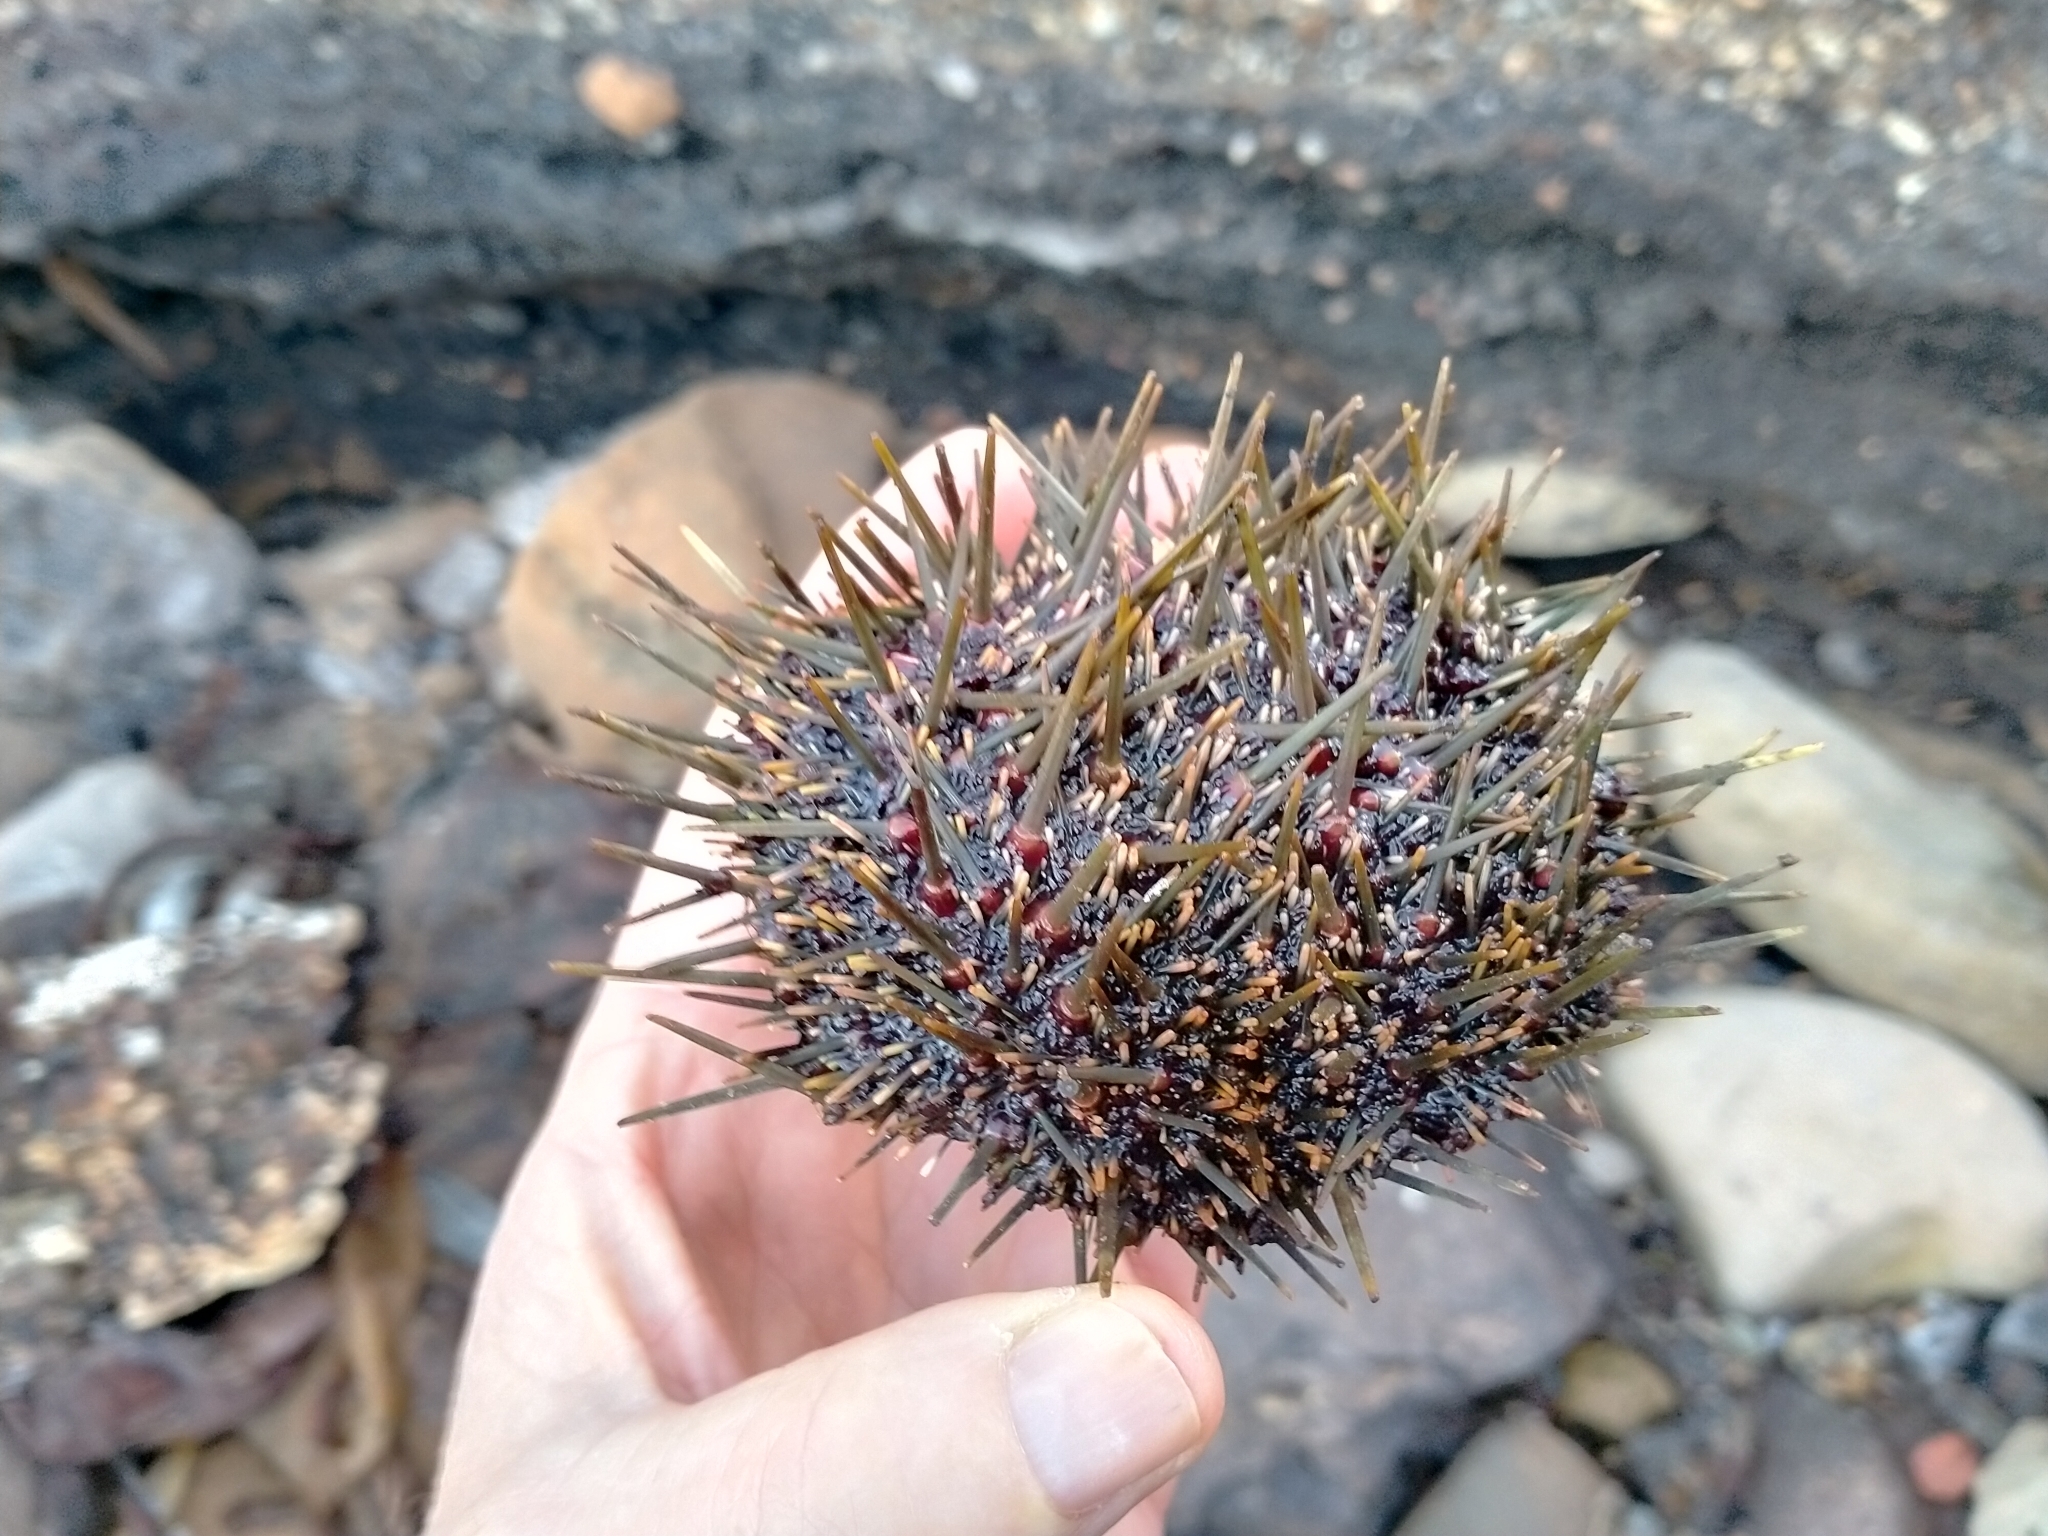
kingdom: Animalia
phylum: Echinodermata
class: Echinoidea
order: Camarodonta
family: Echinometridae
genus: Evechinus
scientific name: Evechinus chloroticus
